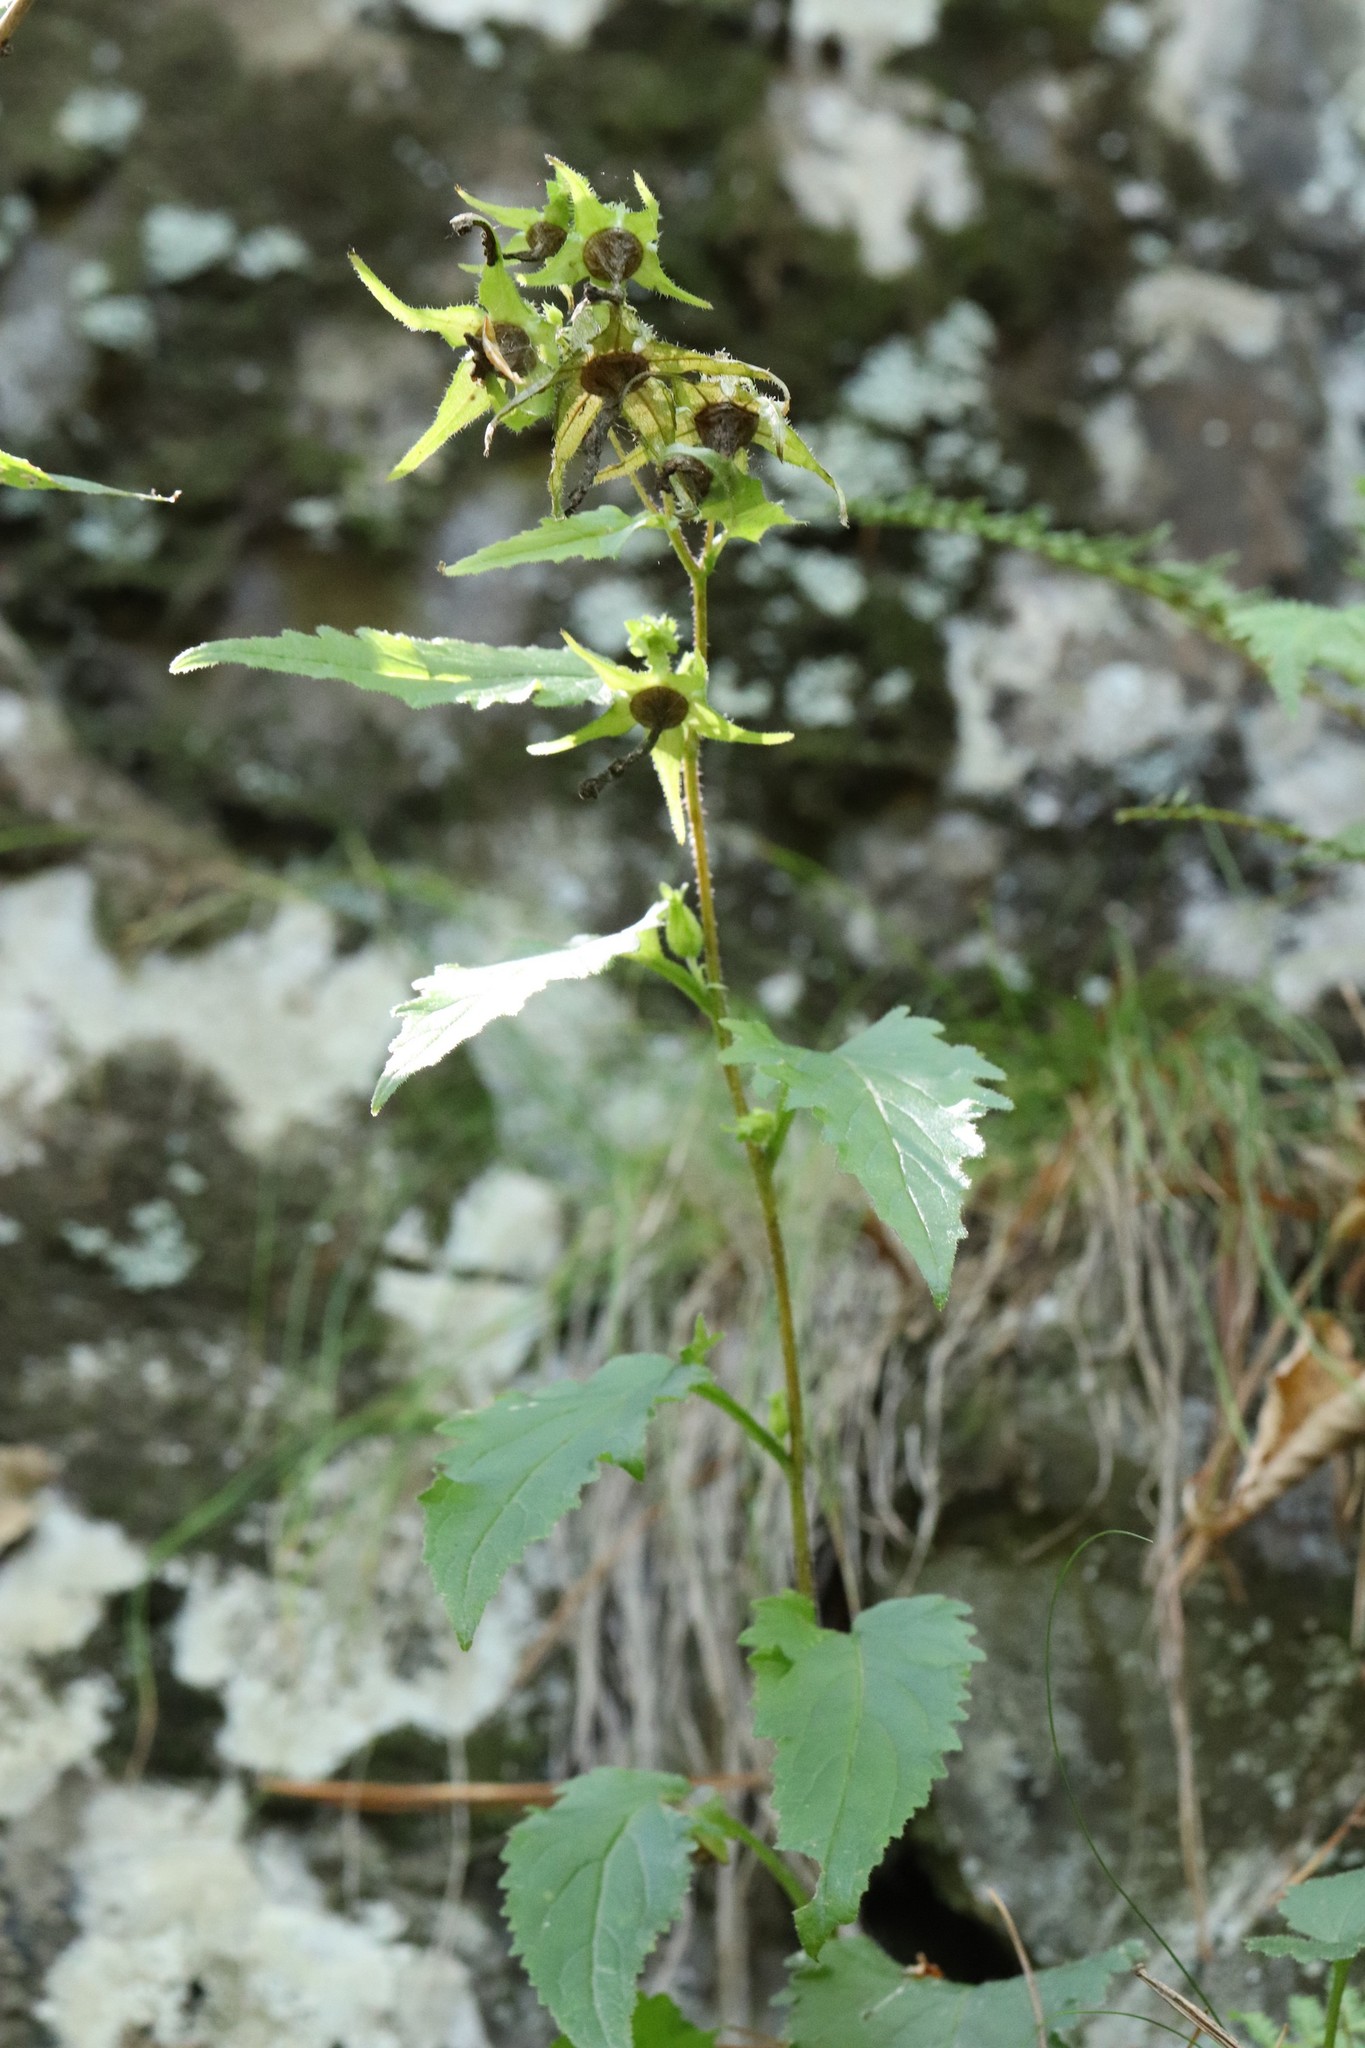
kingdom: Plantae
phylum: Tracheophyta
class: Magnoliopsida
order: Asterales
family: Campanulaceae
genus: Campanula
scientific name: Campanula punctata
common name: Spotted bellflower
